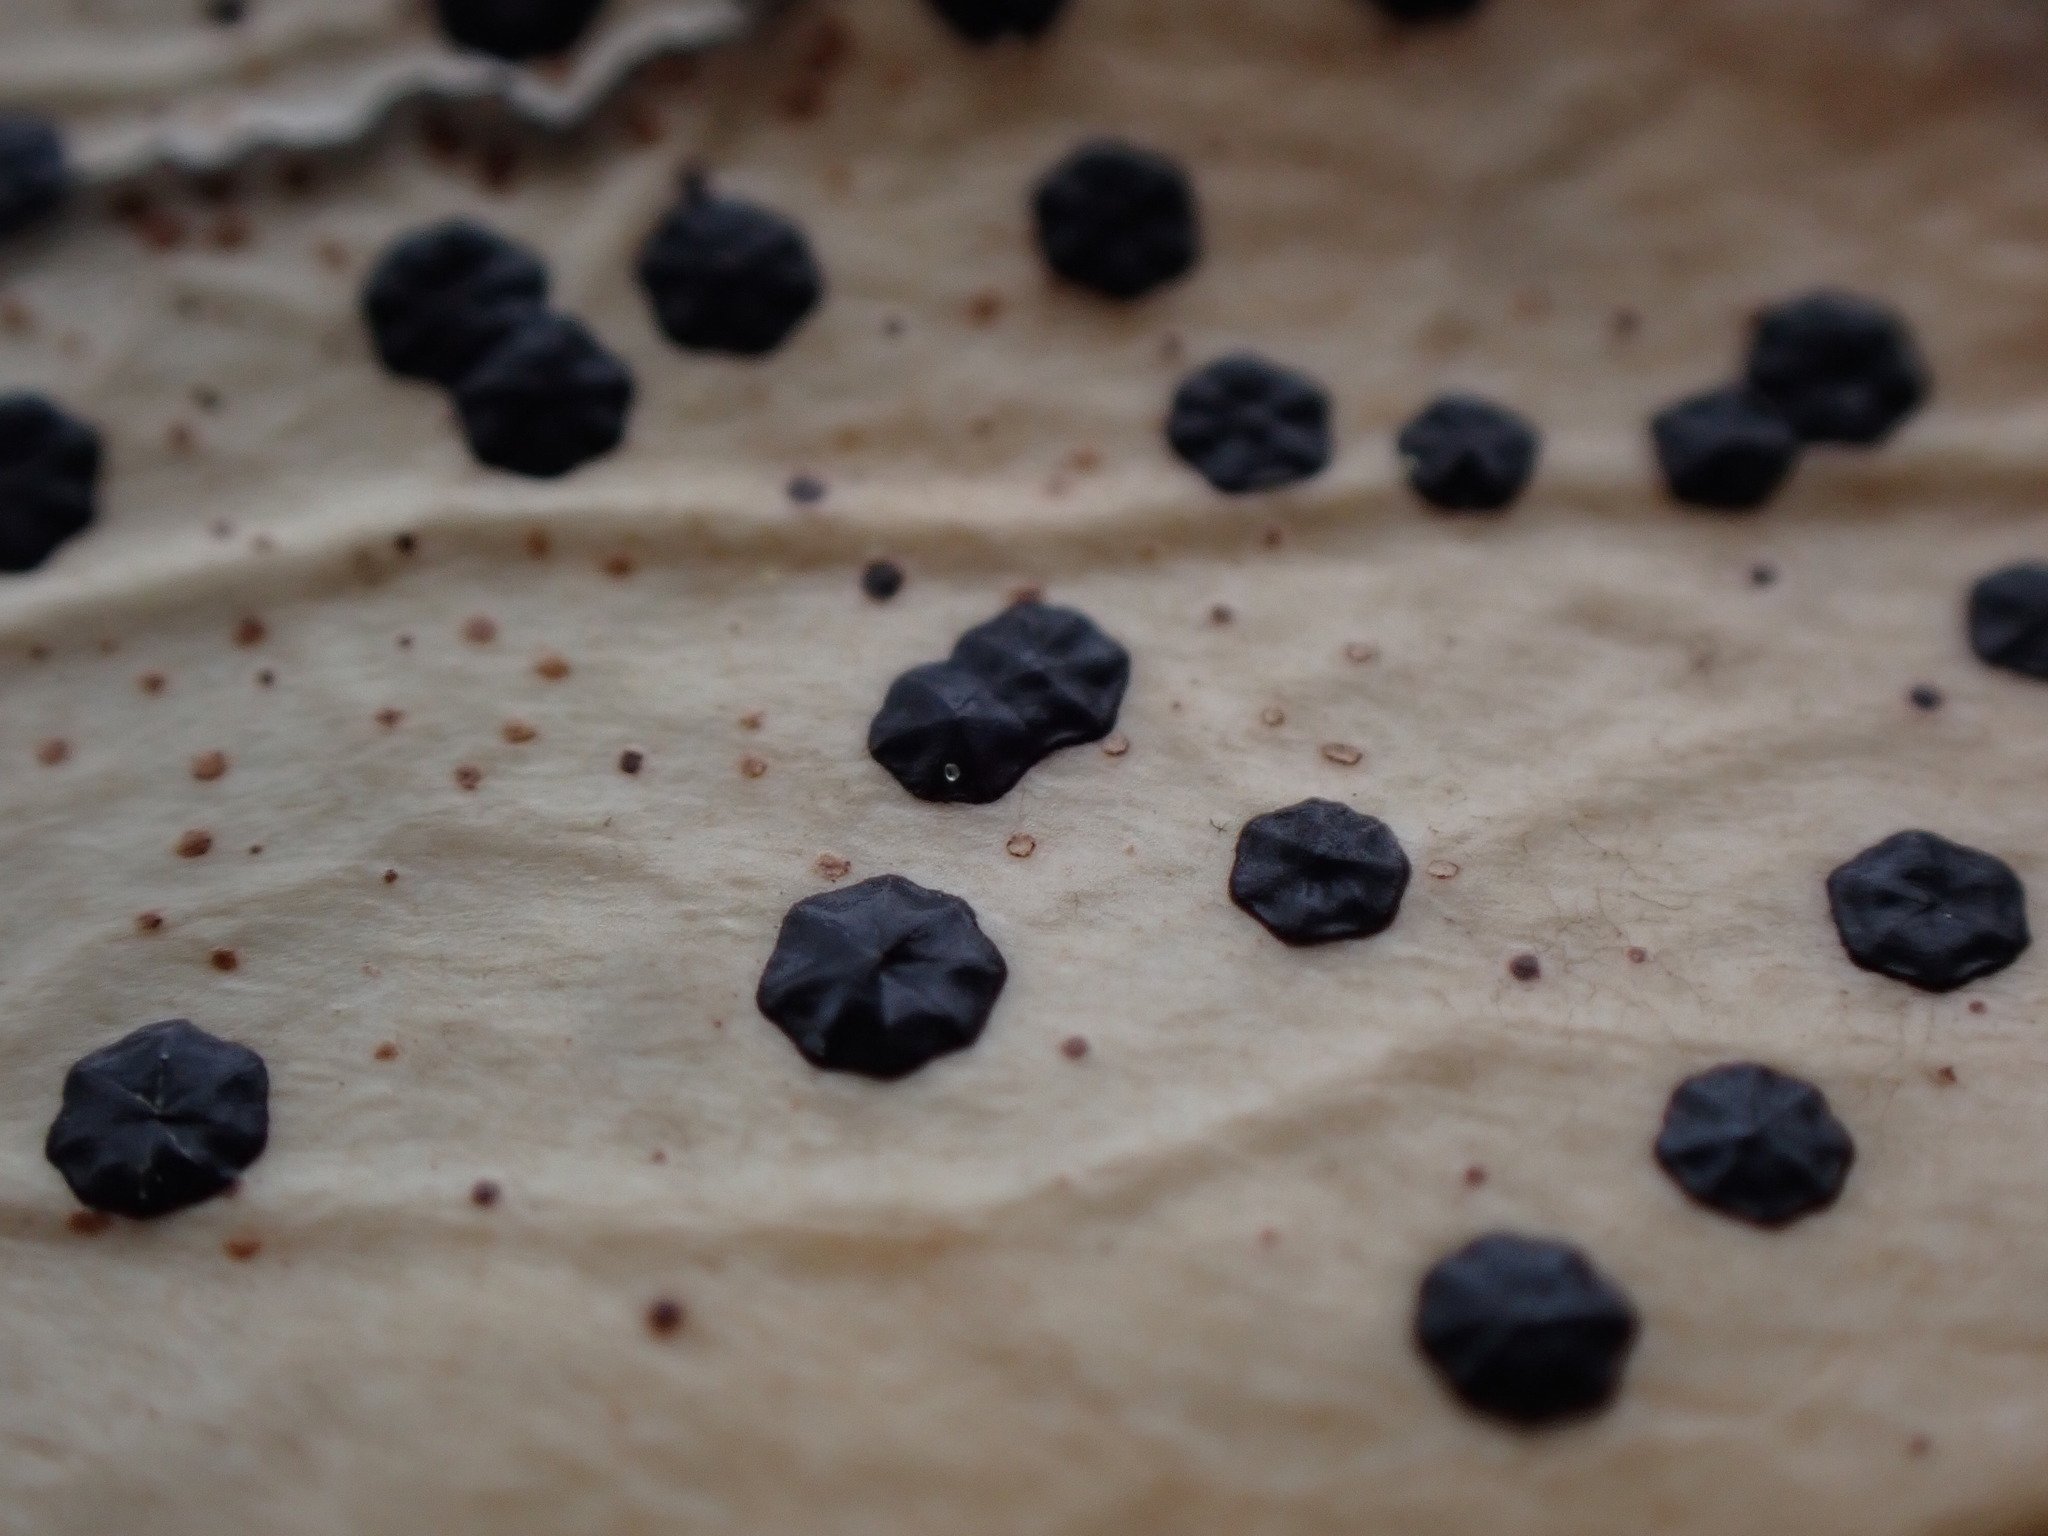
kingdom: Fungi
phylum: Ascomycota
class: Leotiomycetes
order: Rhytismatales
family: Rhytismataceae
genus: Coccomyces
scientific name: Coccomyces dentatus
